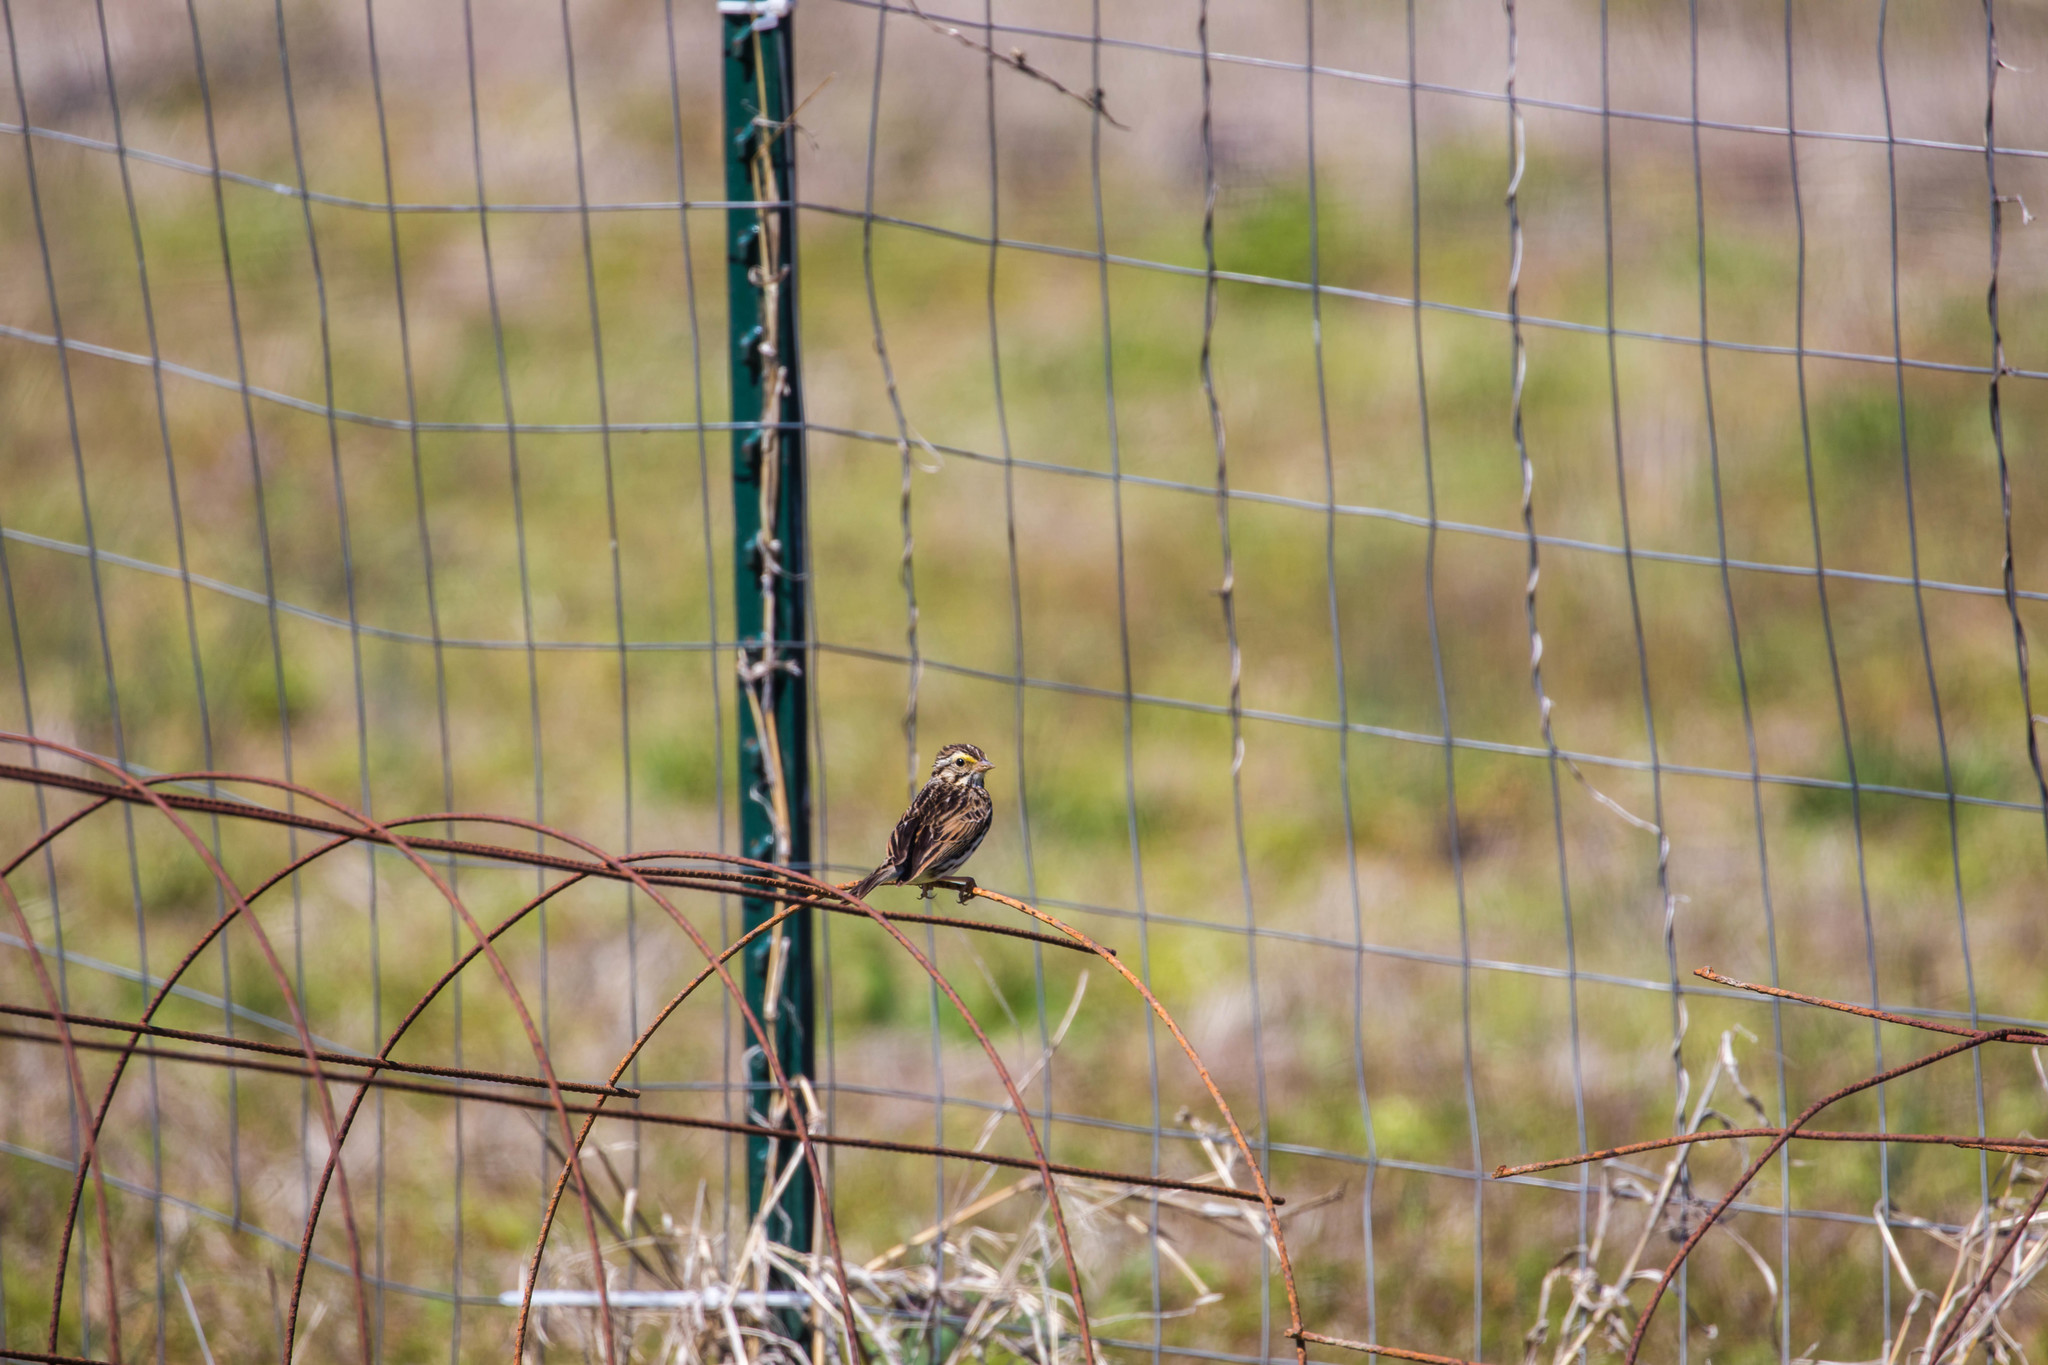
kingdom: Animalia
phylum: Chordata
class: Aves
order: Passeriformes
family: Passerellidae
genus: Passerculus
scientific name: Passerculus sandwichensis
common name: Savannah sparrow
